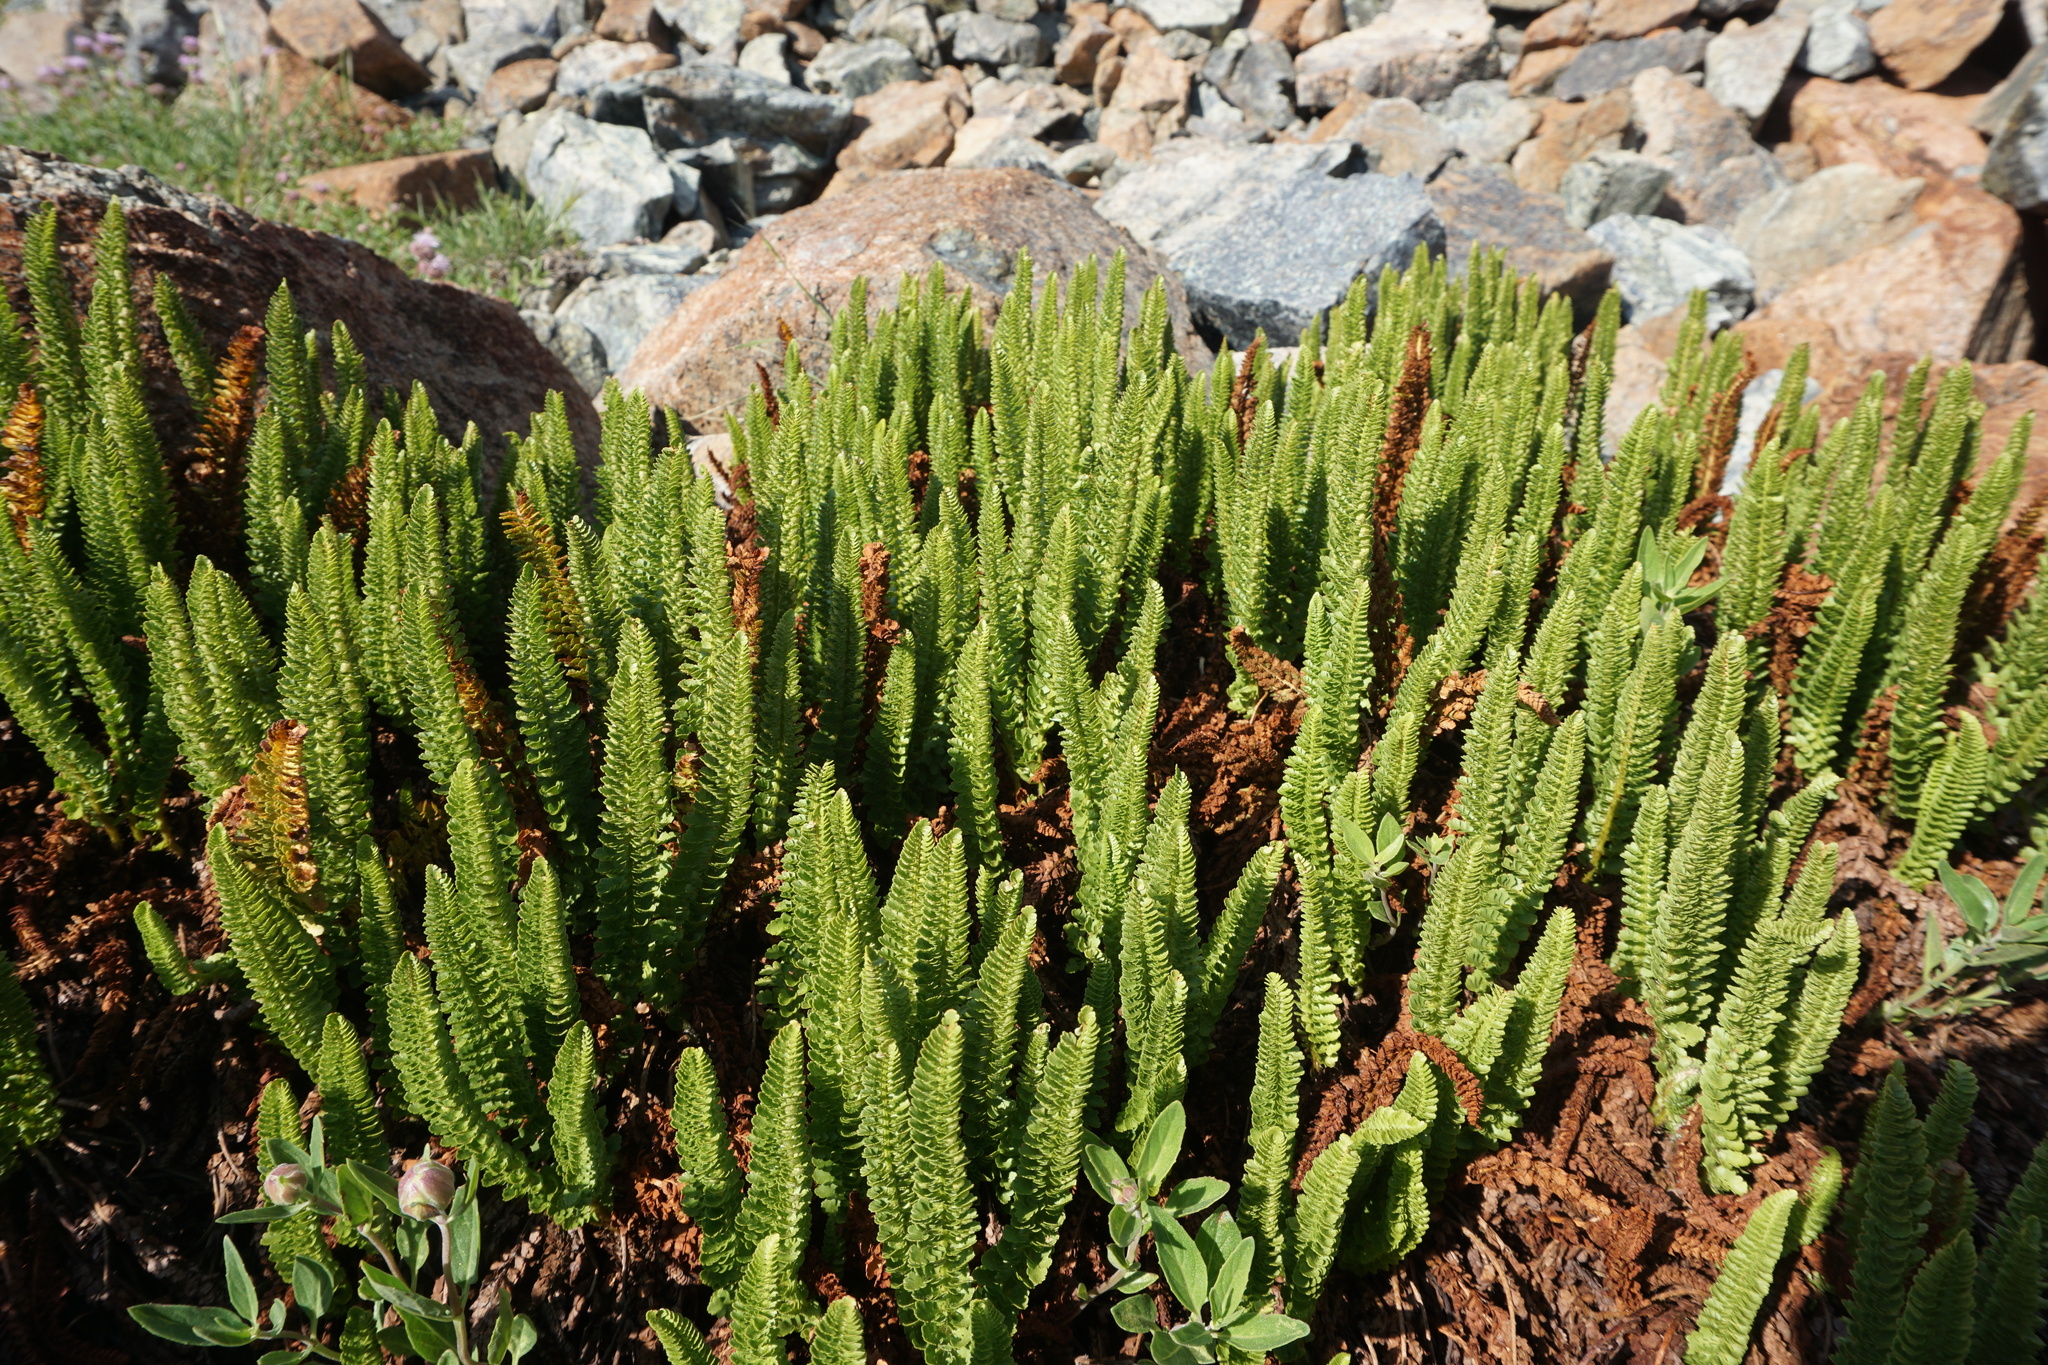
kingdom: Plantae
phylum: Tracheophyta
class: Polypodiopsida
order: Polypodiales
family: Dryopteridaceae
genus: Polystichum
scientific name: Polystichum lemmonii
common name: Lemmon's holly fern
